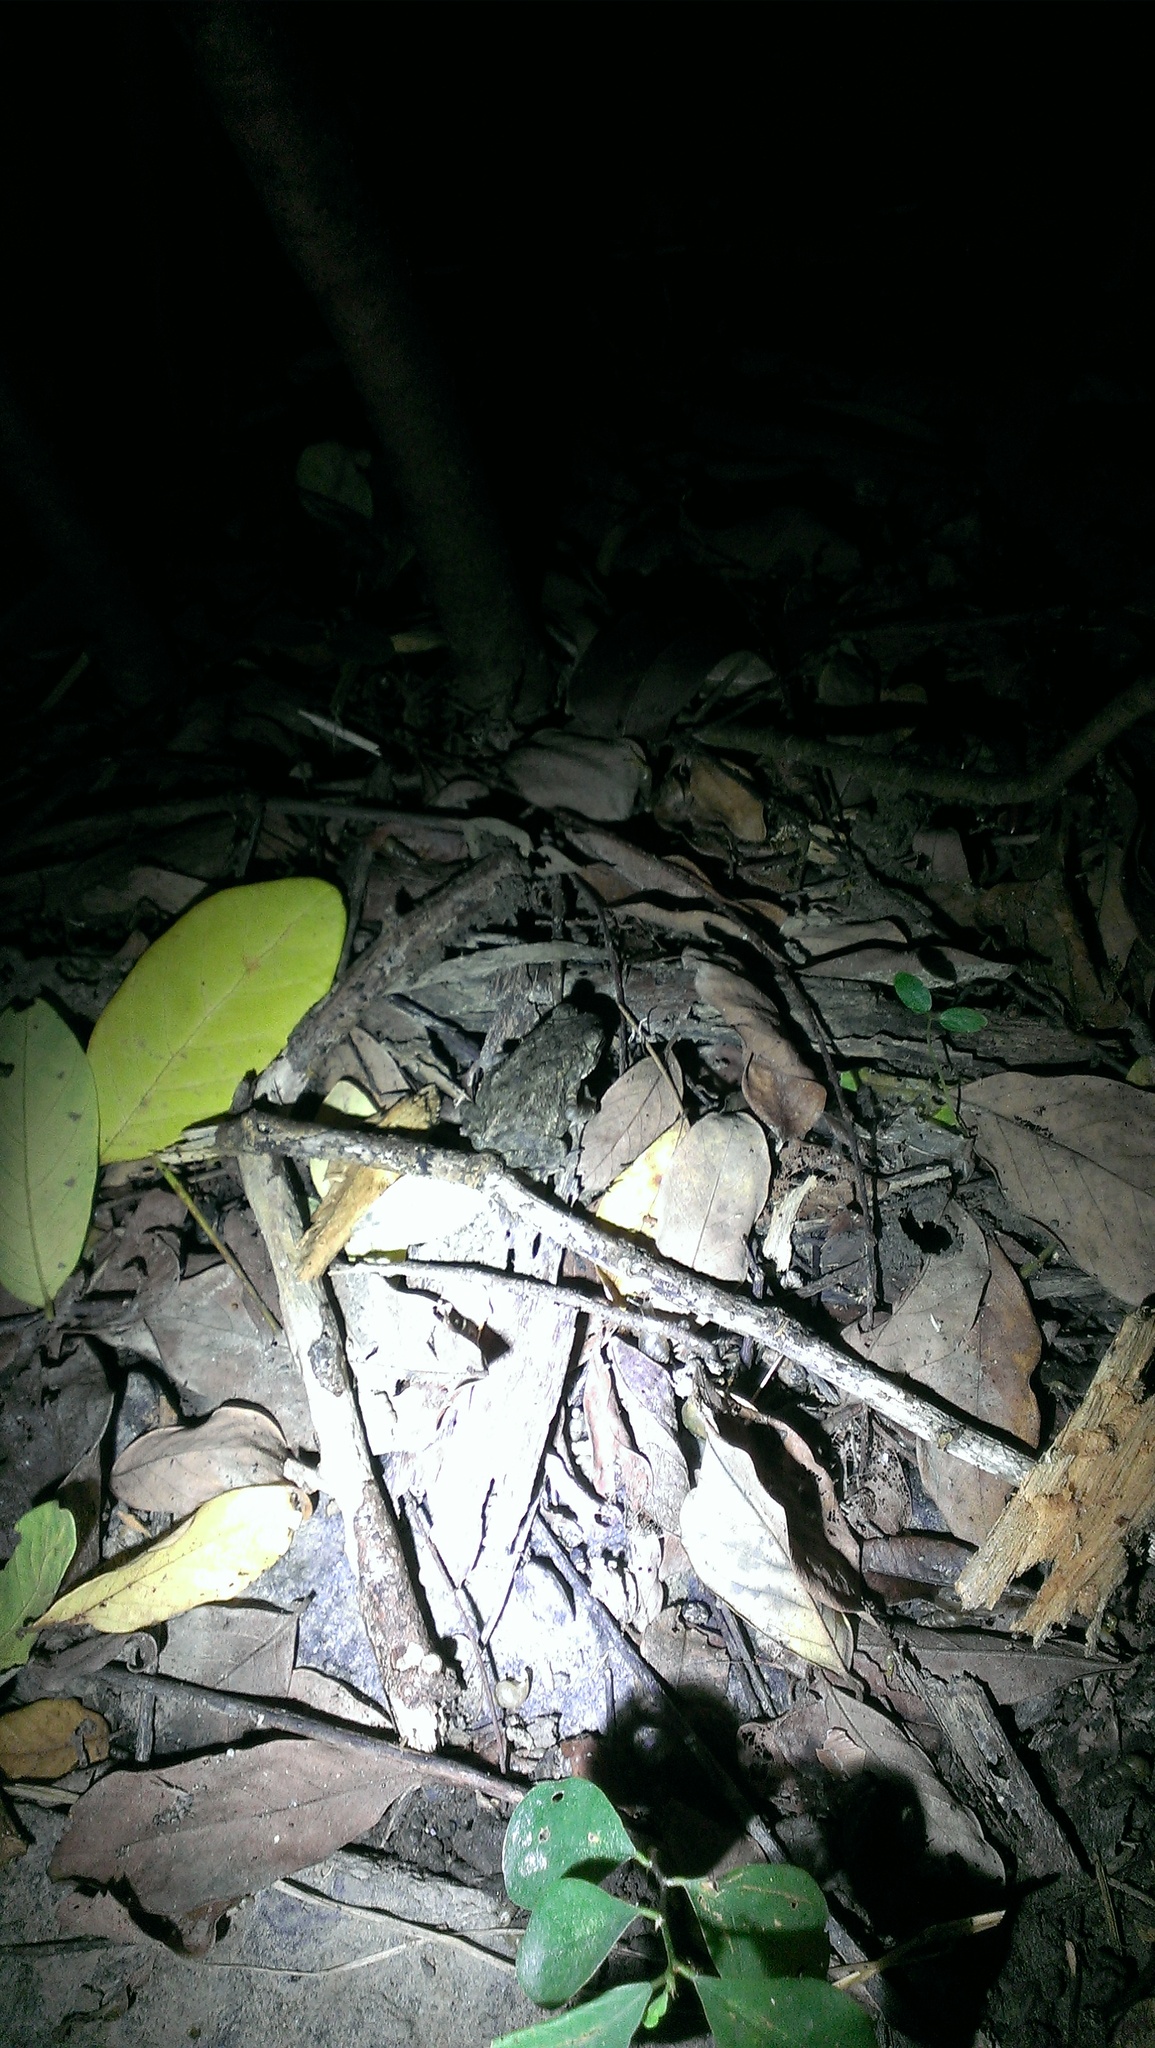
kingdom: Animalia
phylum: Chordata
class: Amphibia
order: Anura
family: Bufonidae
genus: Duttaphrynus
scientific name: Duttaphrynus melanostictus
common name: Common sunda toad
